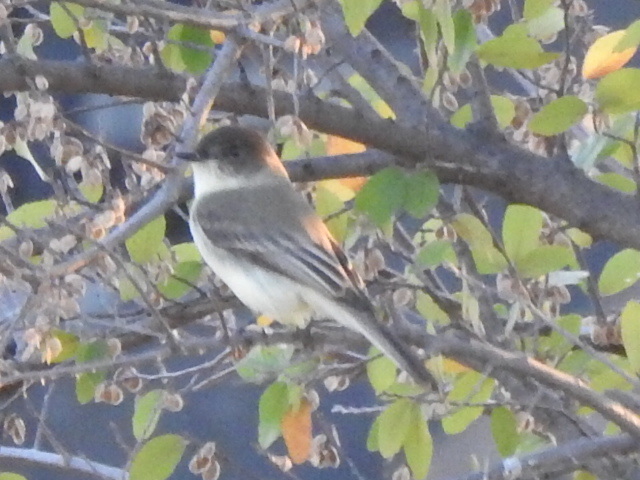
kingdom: Animalia
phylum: Chordata
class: Aves
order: Passeriformes
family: Tyrannidae
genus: Sayornis
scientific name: Sayornis phoebe
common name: Eastern phoebe
